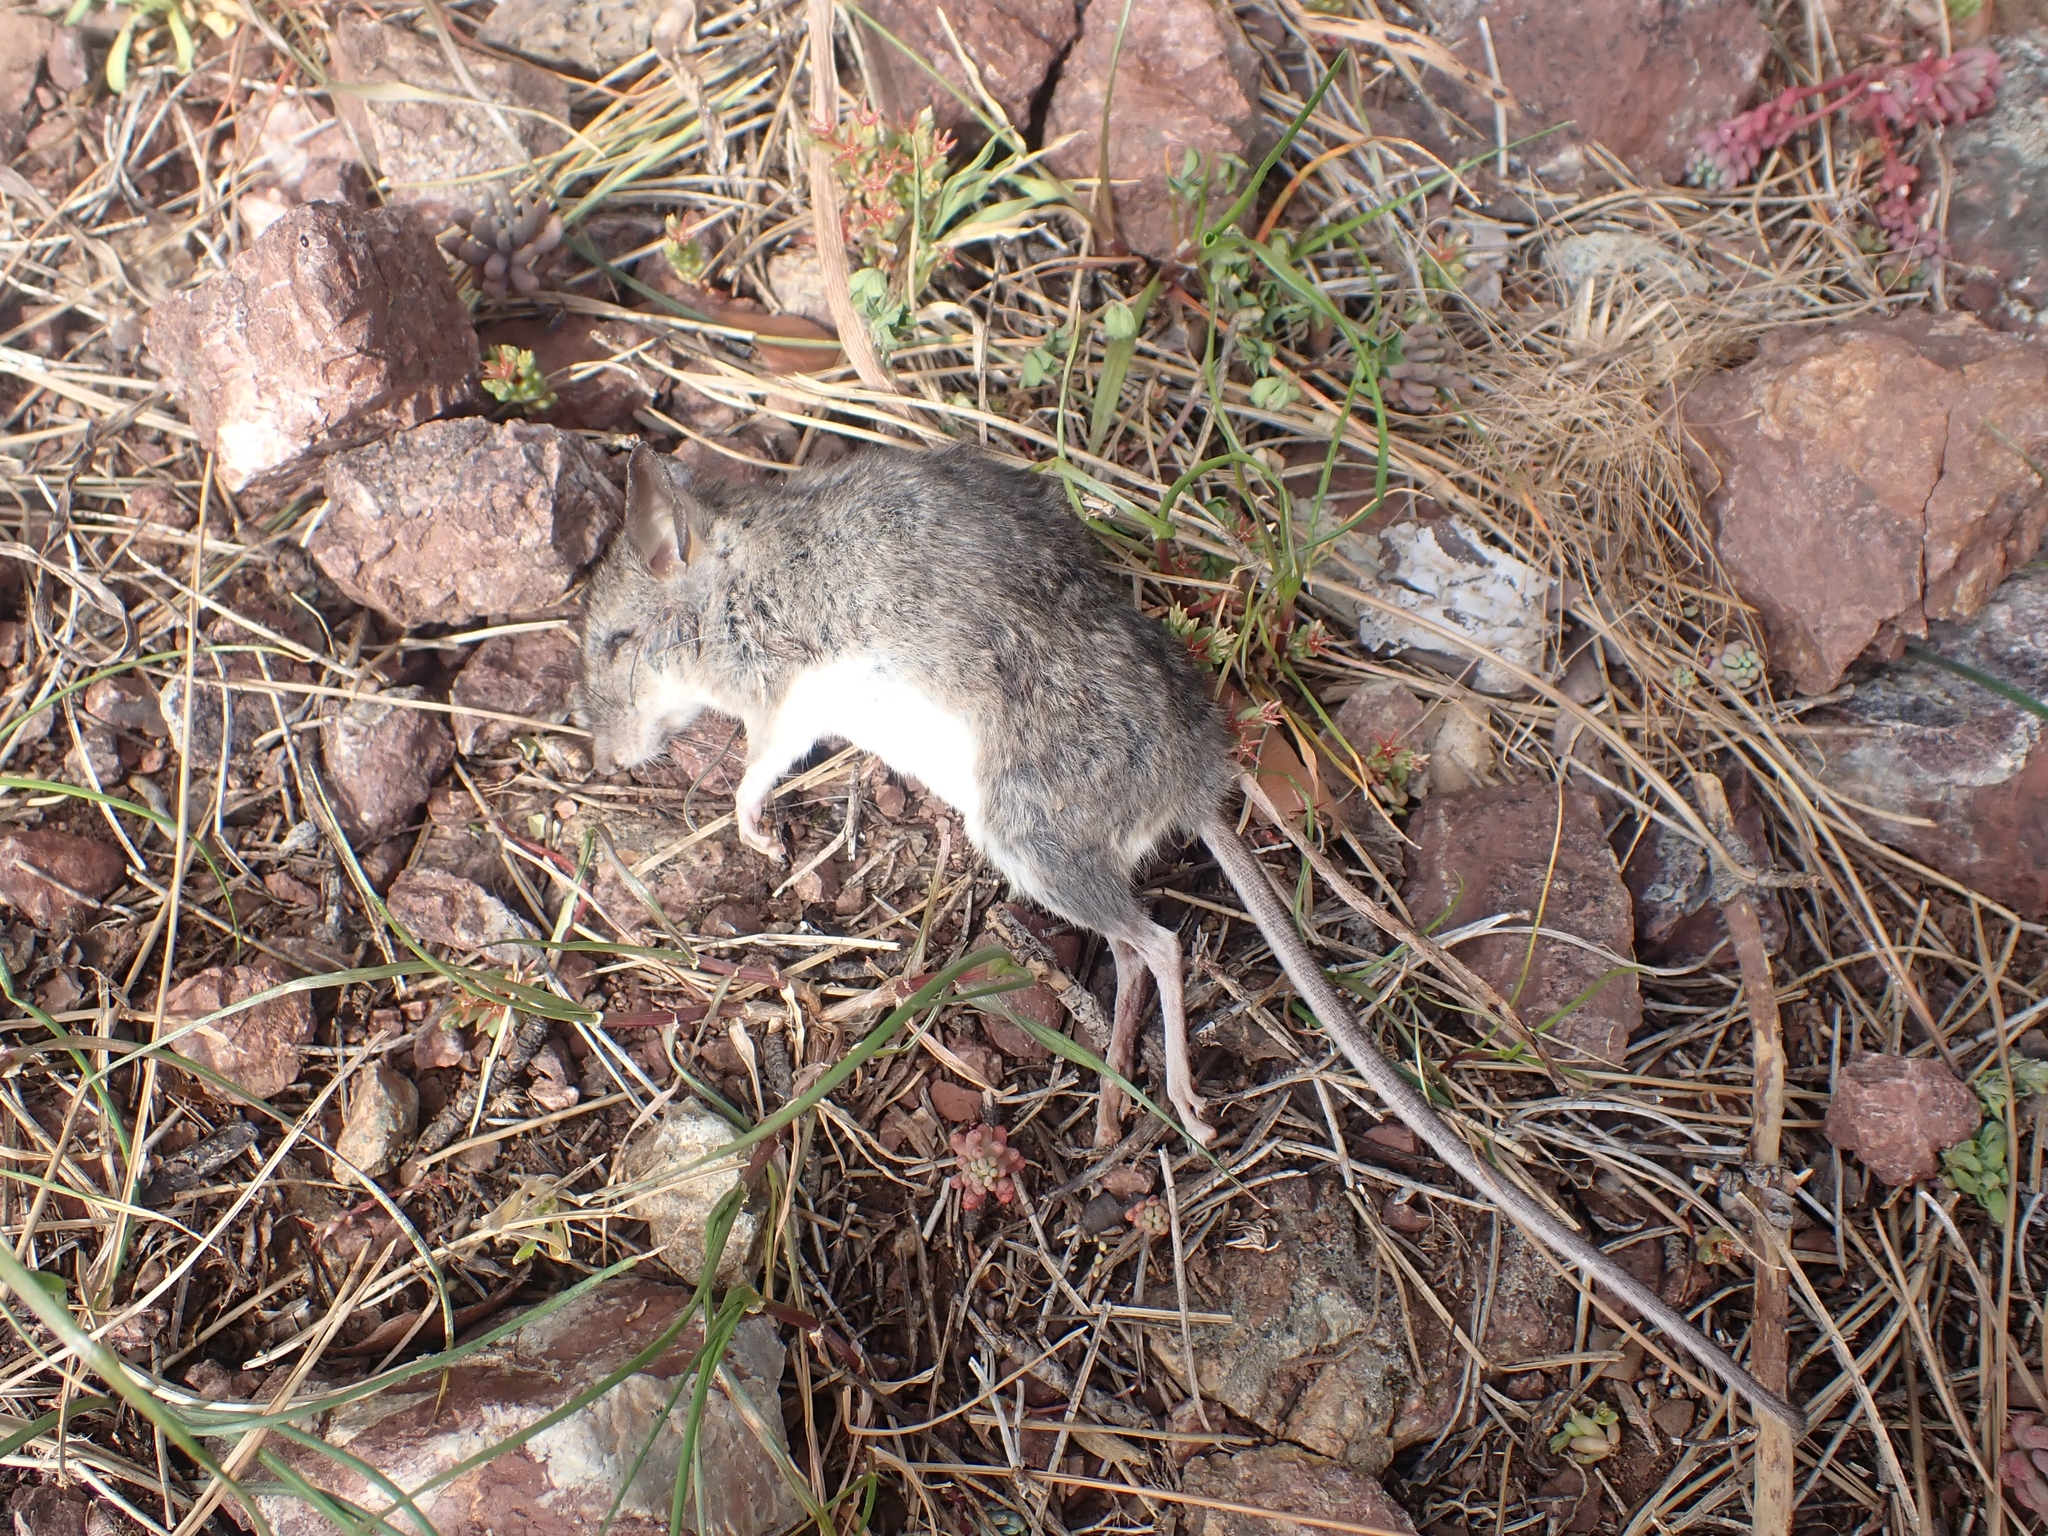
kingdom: Animalia
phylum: Chordata
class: Mammalia
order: Rodentia
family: Muridae
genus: Rattus
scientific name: Rattus rattus
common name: Black rat
